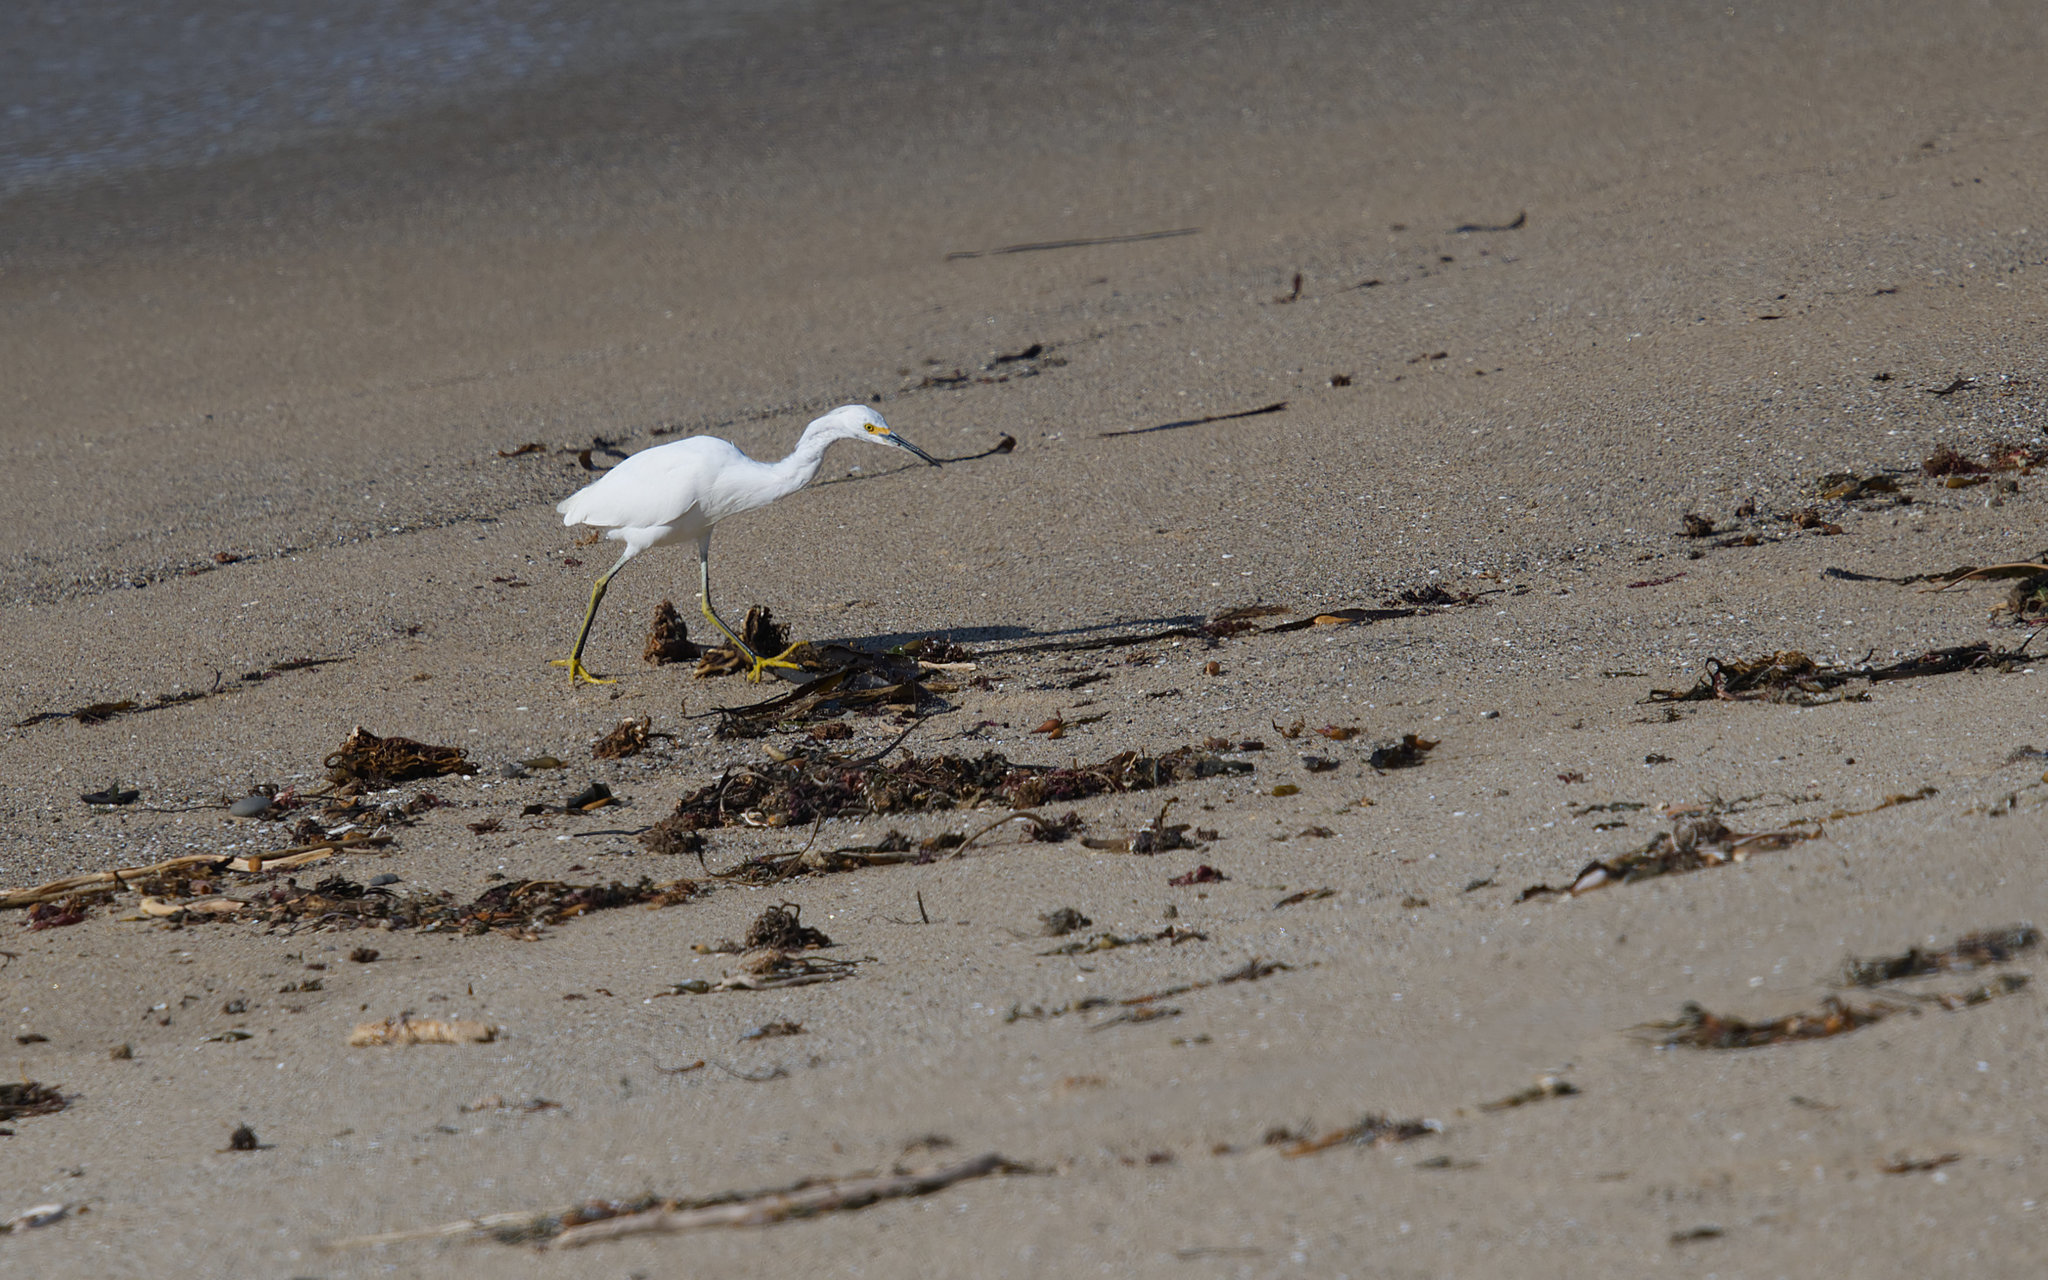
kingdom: Animalia
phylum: Chordata
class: Aves
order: Pelecaniformes
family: Ardeidae
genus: Egretta
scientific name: Egretta thula
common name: Snowy egret
